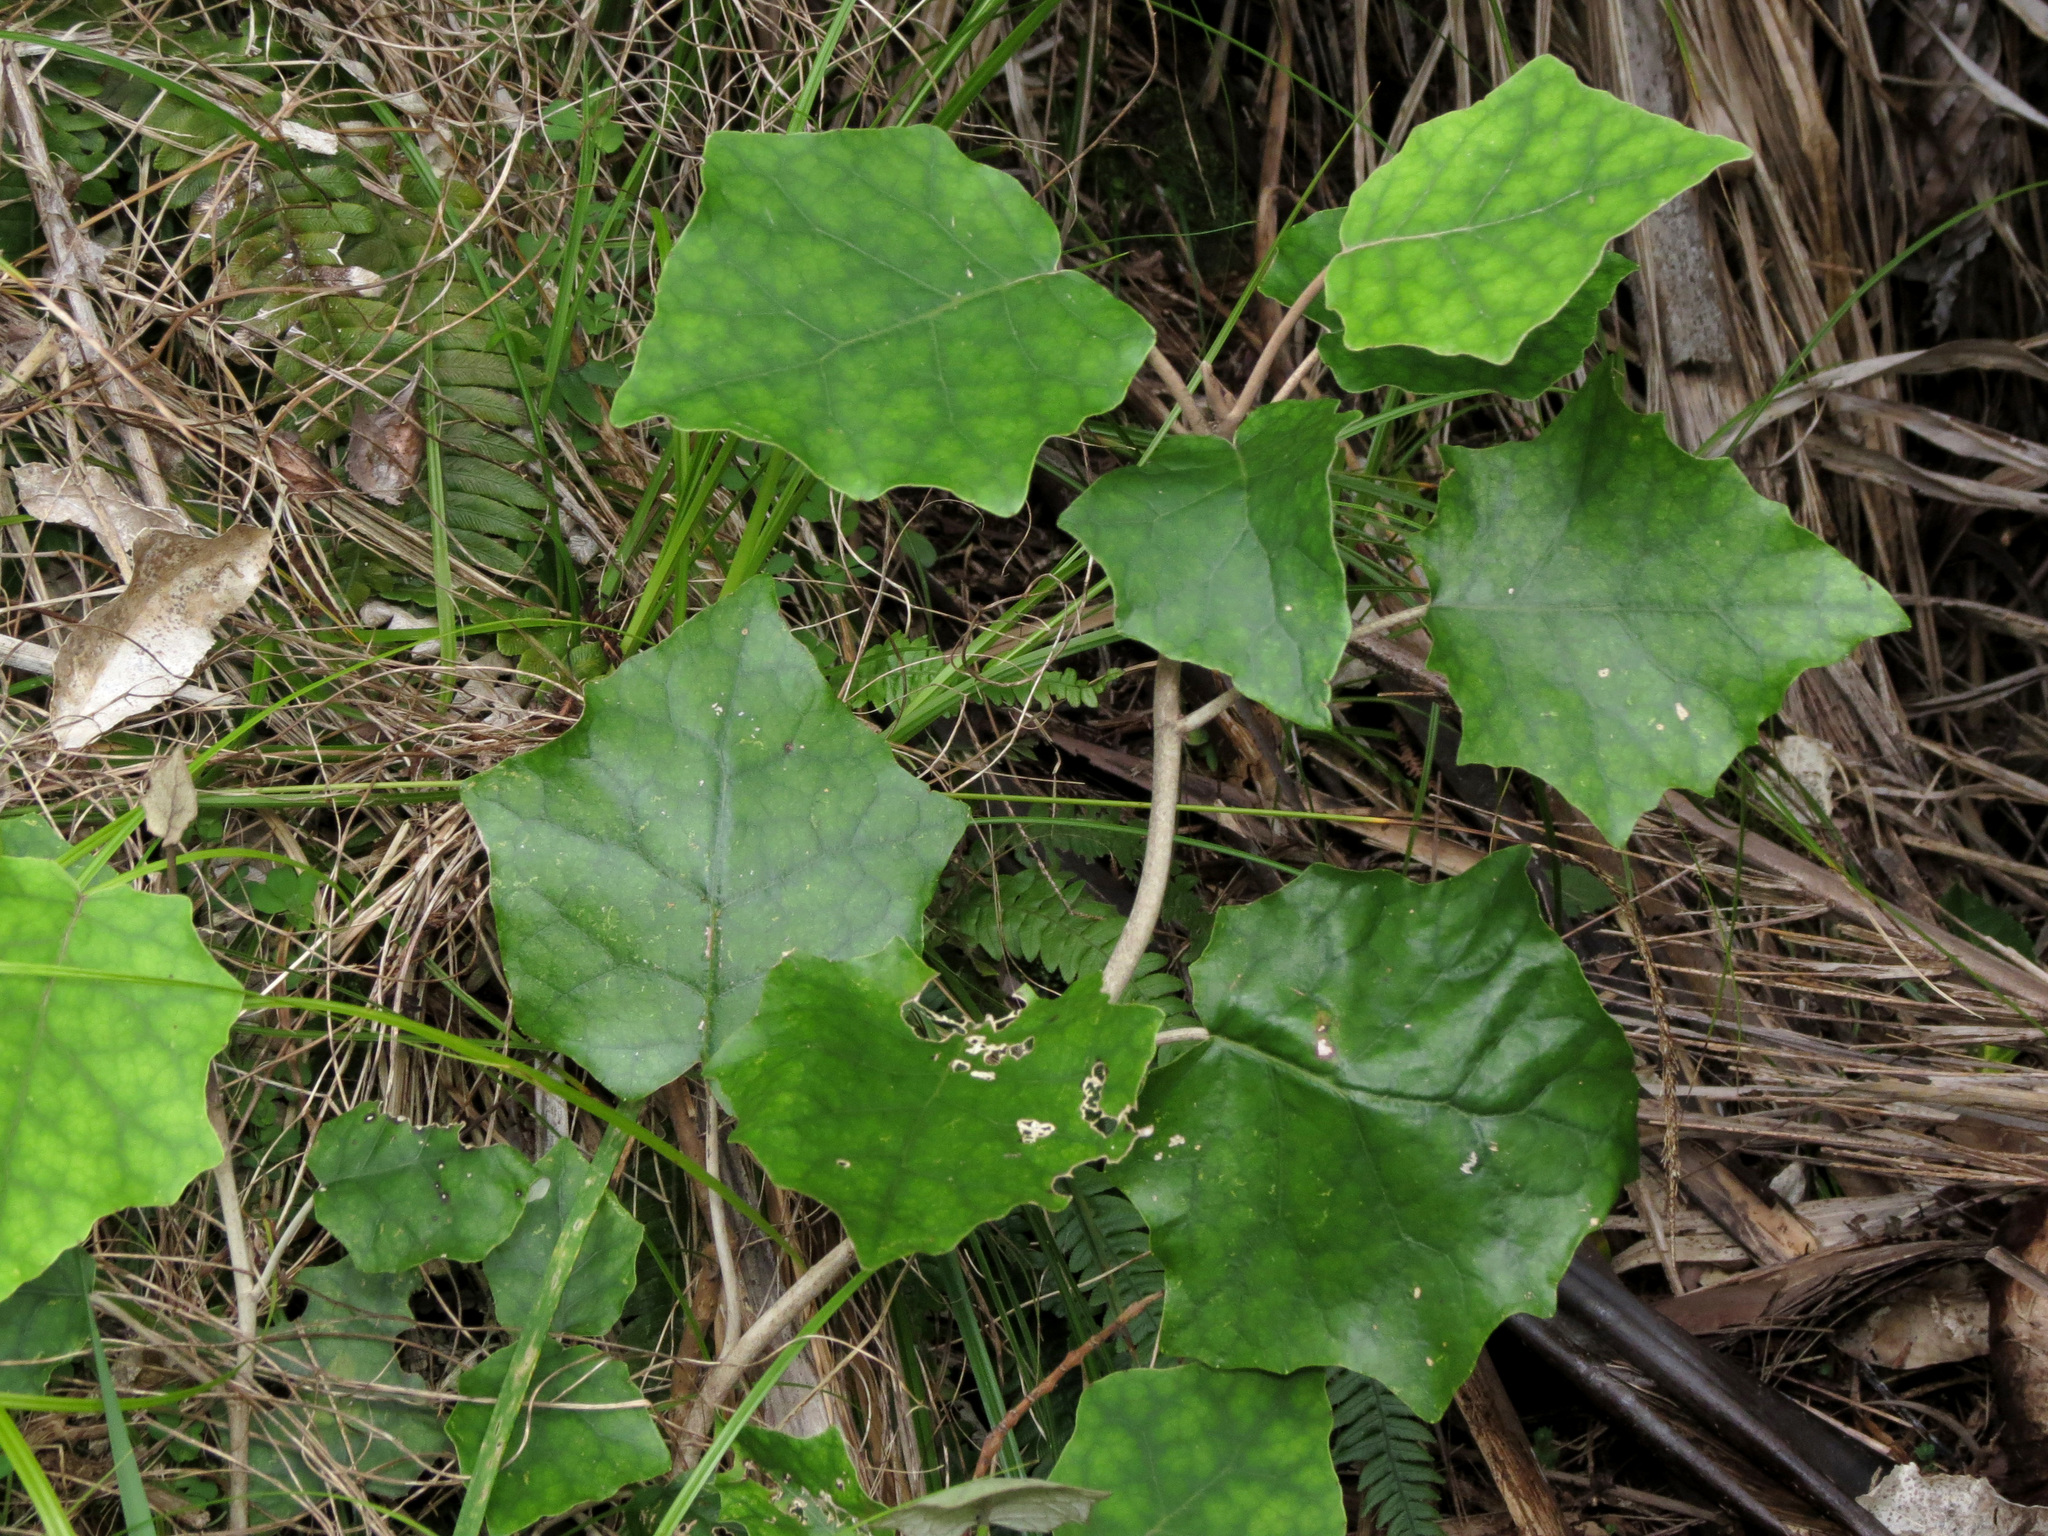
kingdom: Plantae
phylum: Tracheophyta
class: Magnoliopsida
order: Asterales
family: Asteraceae
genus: Brachyglottis
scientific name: Brachyglottis repanda
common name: Hedge ragwort
